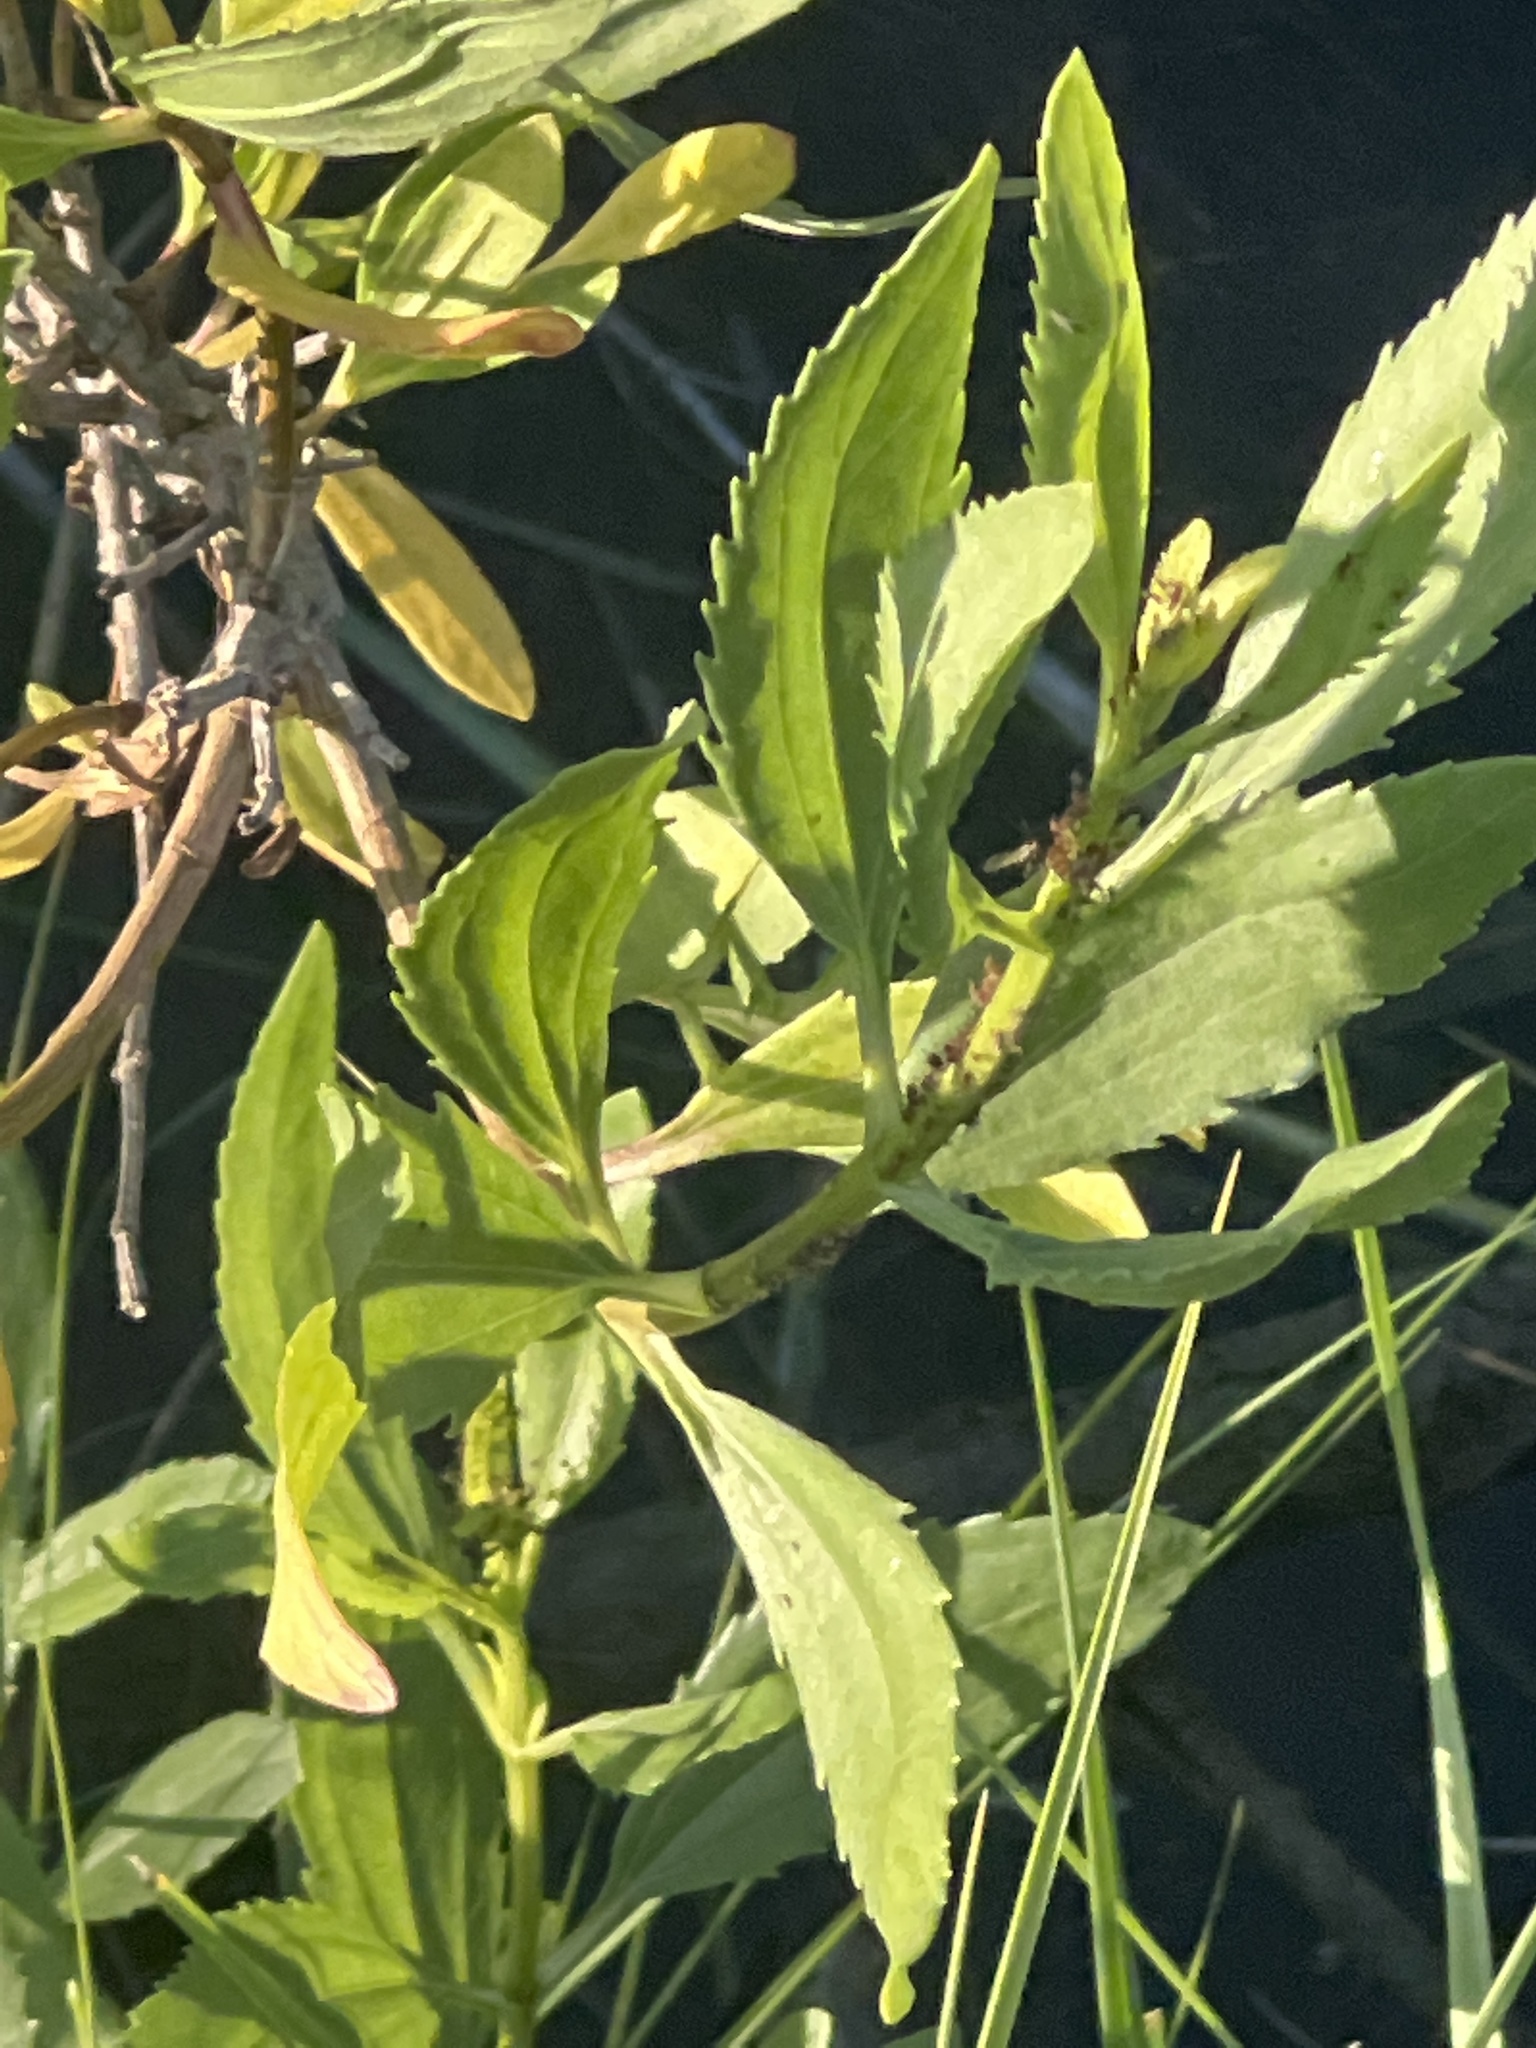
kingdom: Plantae
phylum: Tracheophyta
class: Magnoliopsida
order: Asterales
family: Asteraceae
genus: Iva
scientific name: Iva frutescens
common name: Big-leaved marsh-elder
